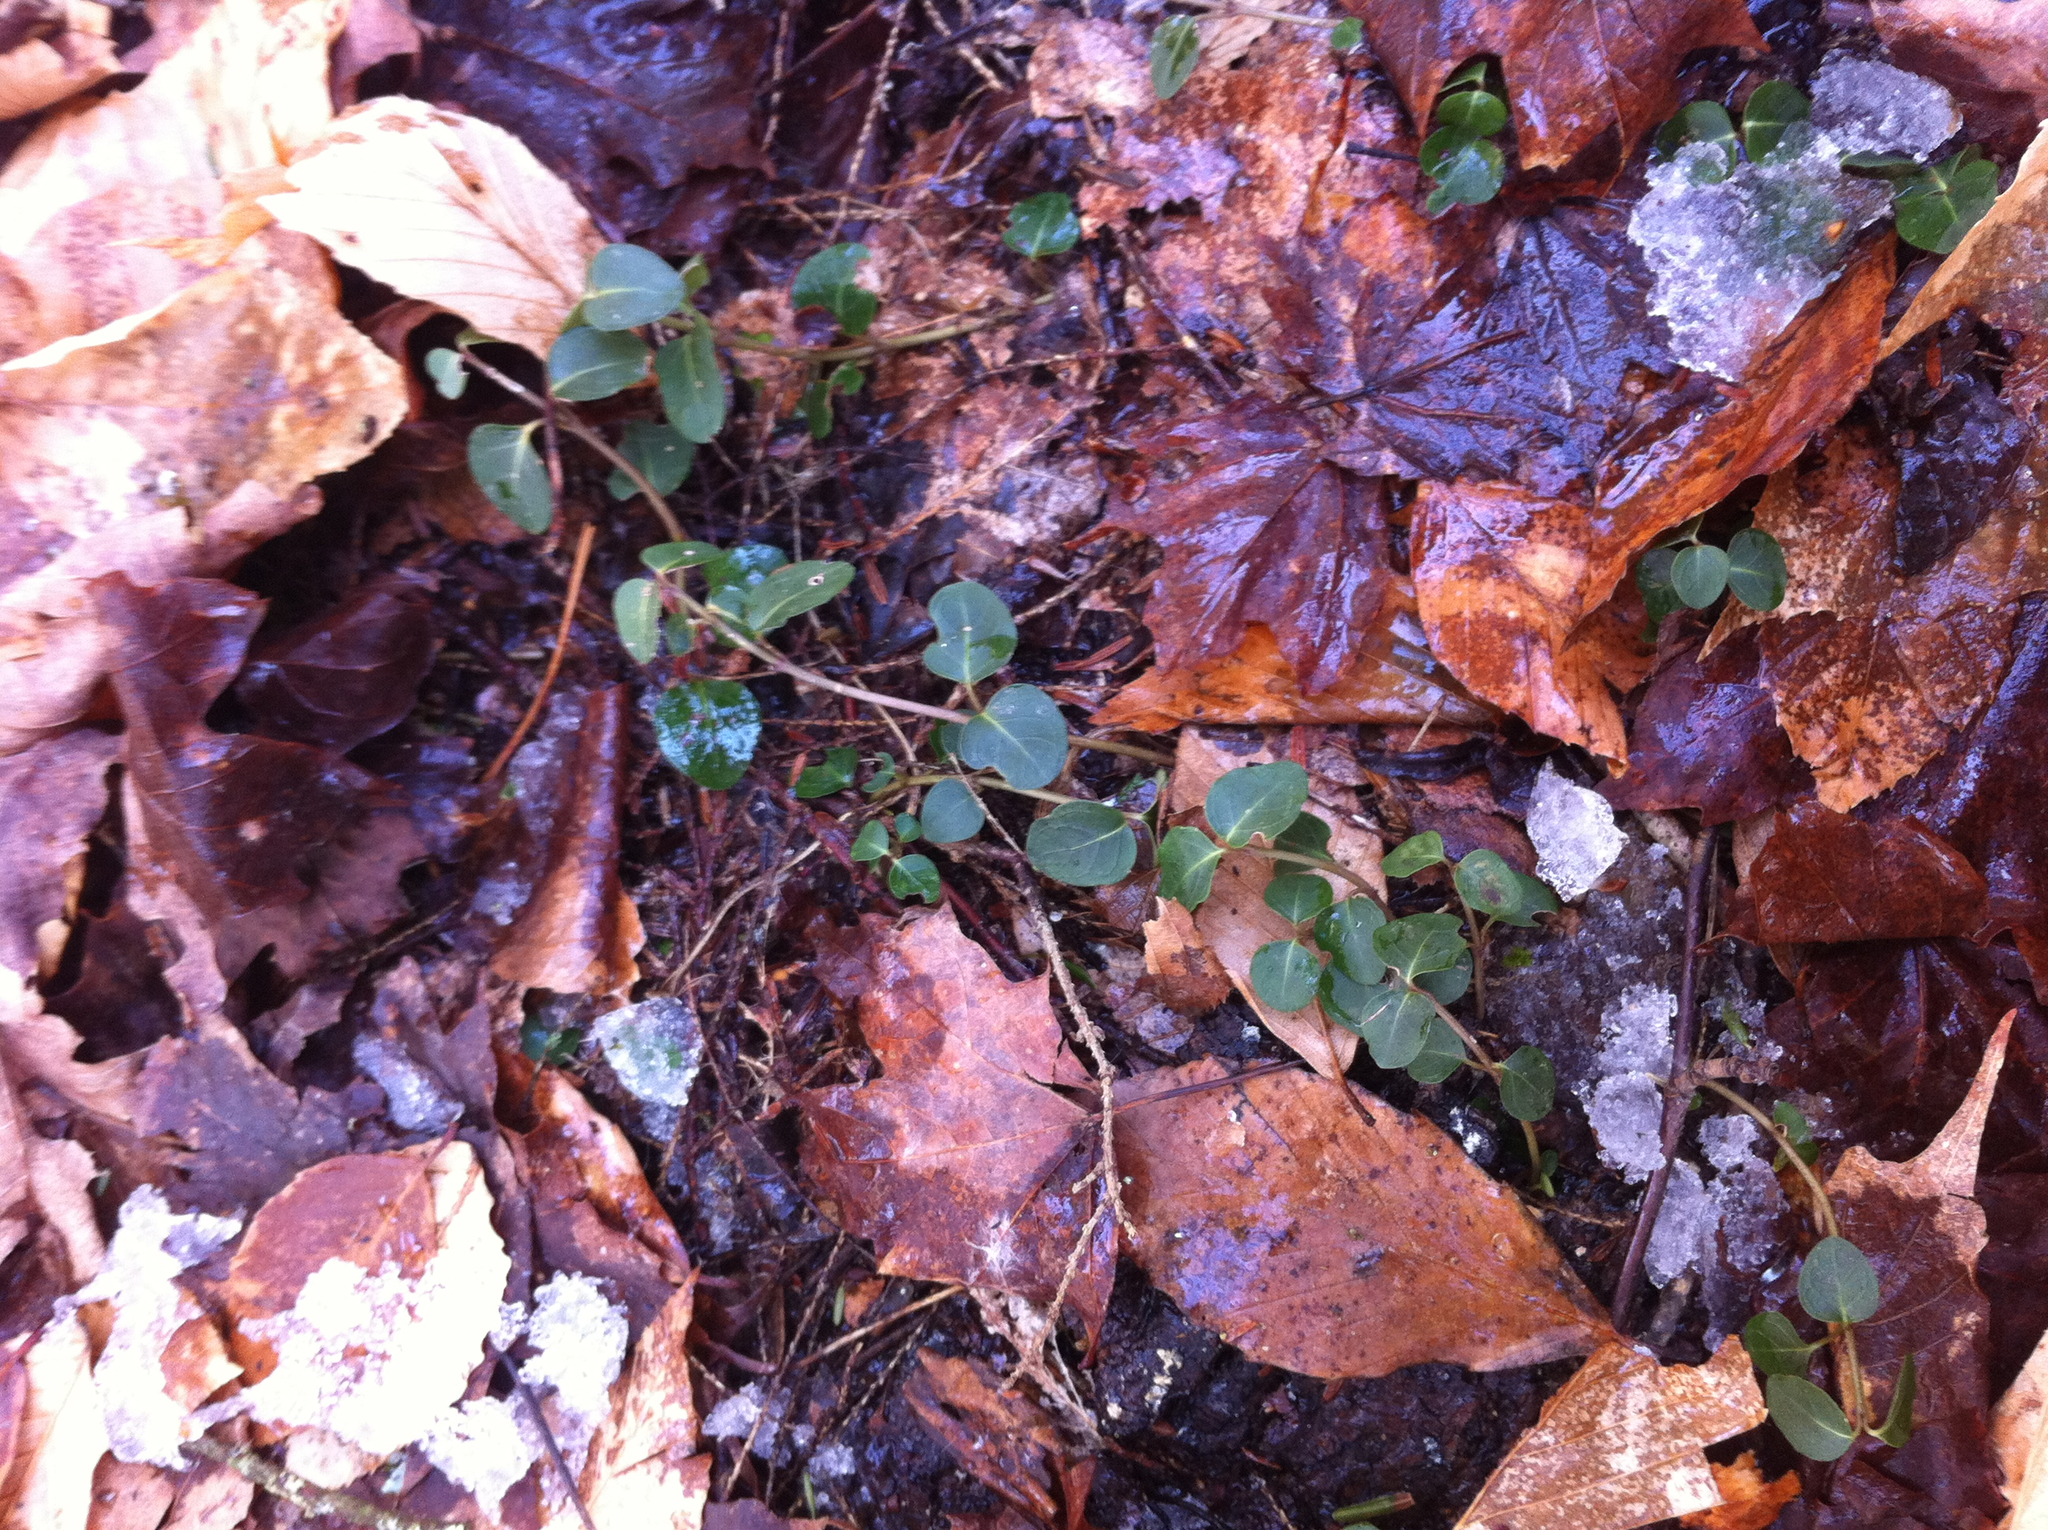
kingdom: Plantae
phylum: Tracheophyta
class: Magnoliopsida
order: Gentianales
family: Rubiaceae
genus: Mitchella
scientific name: Mitchella repens
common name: Partridge-berry
